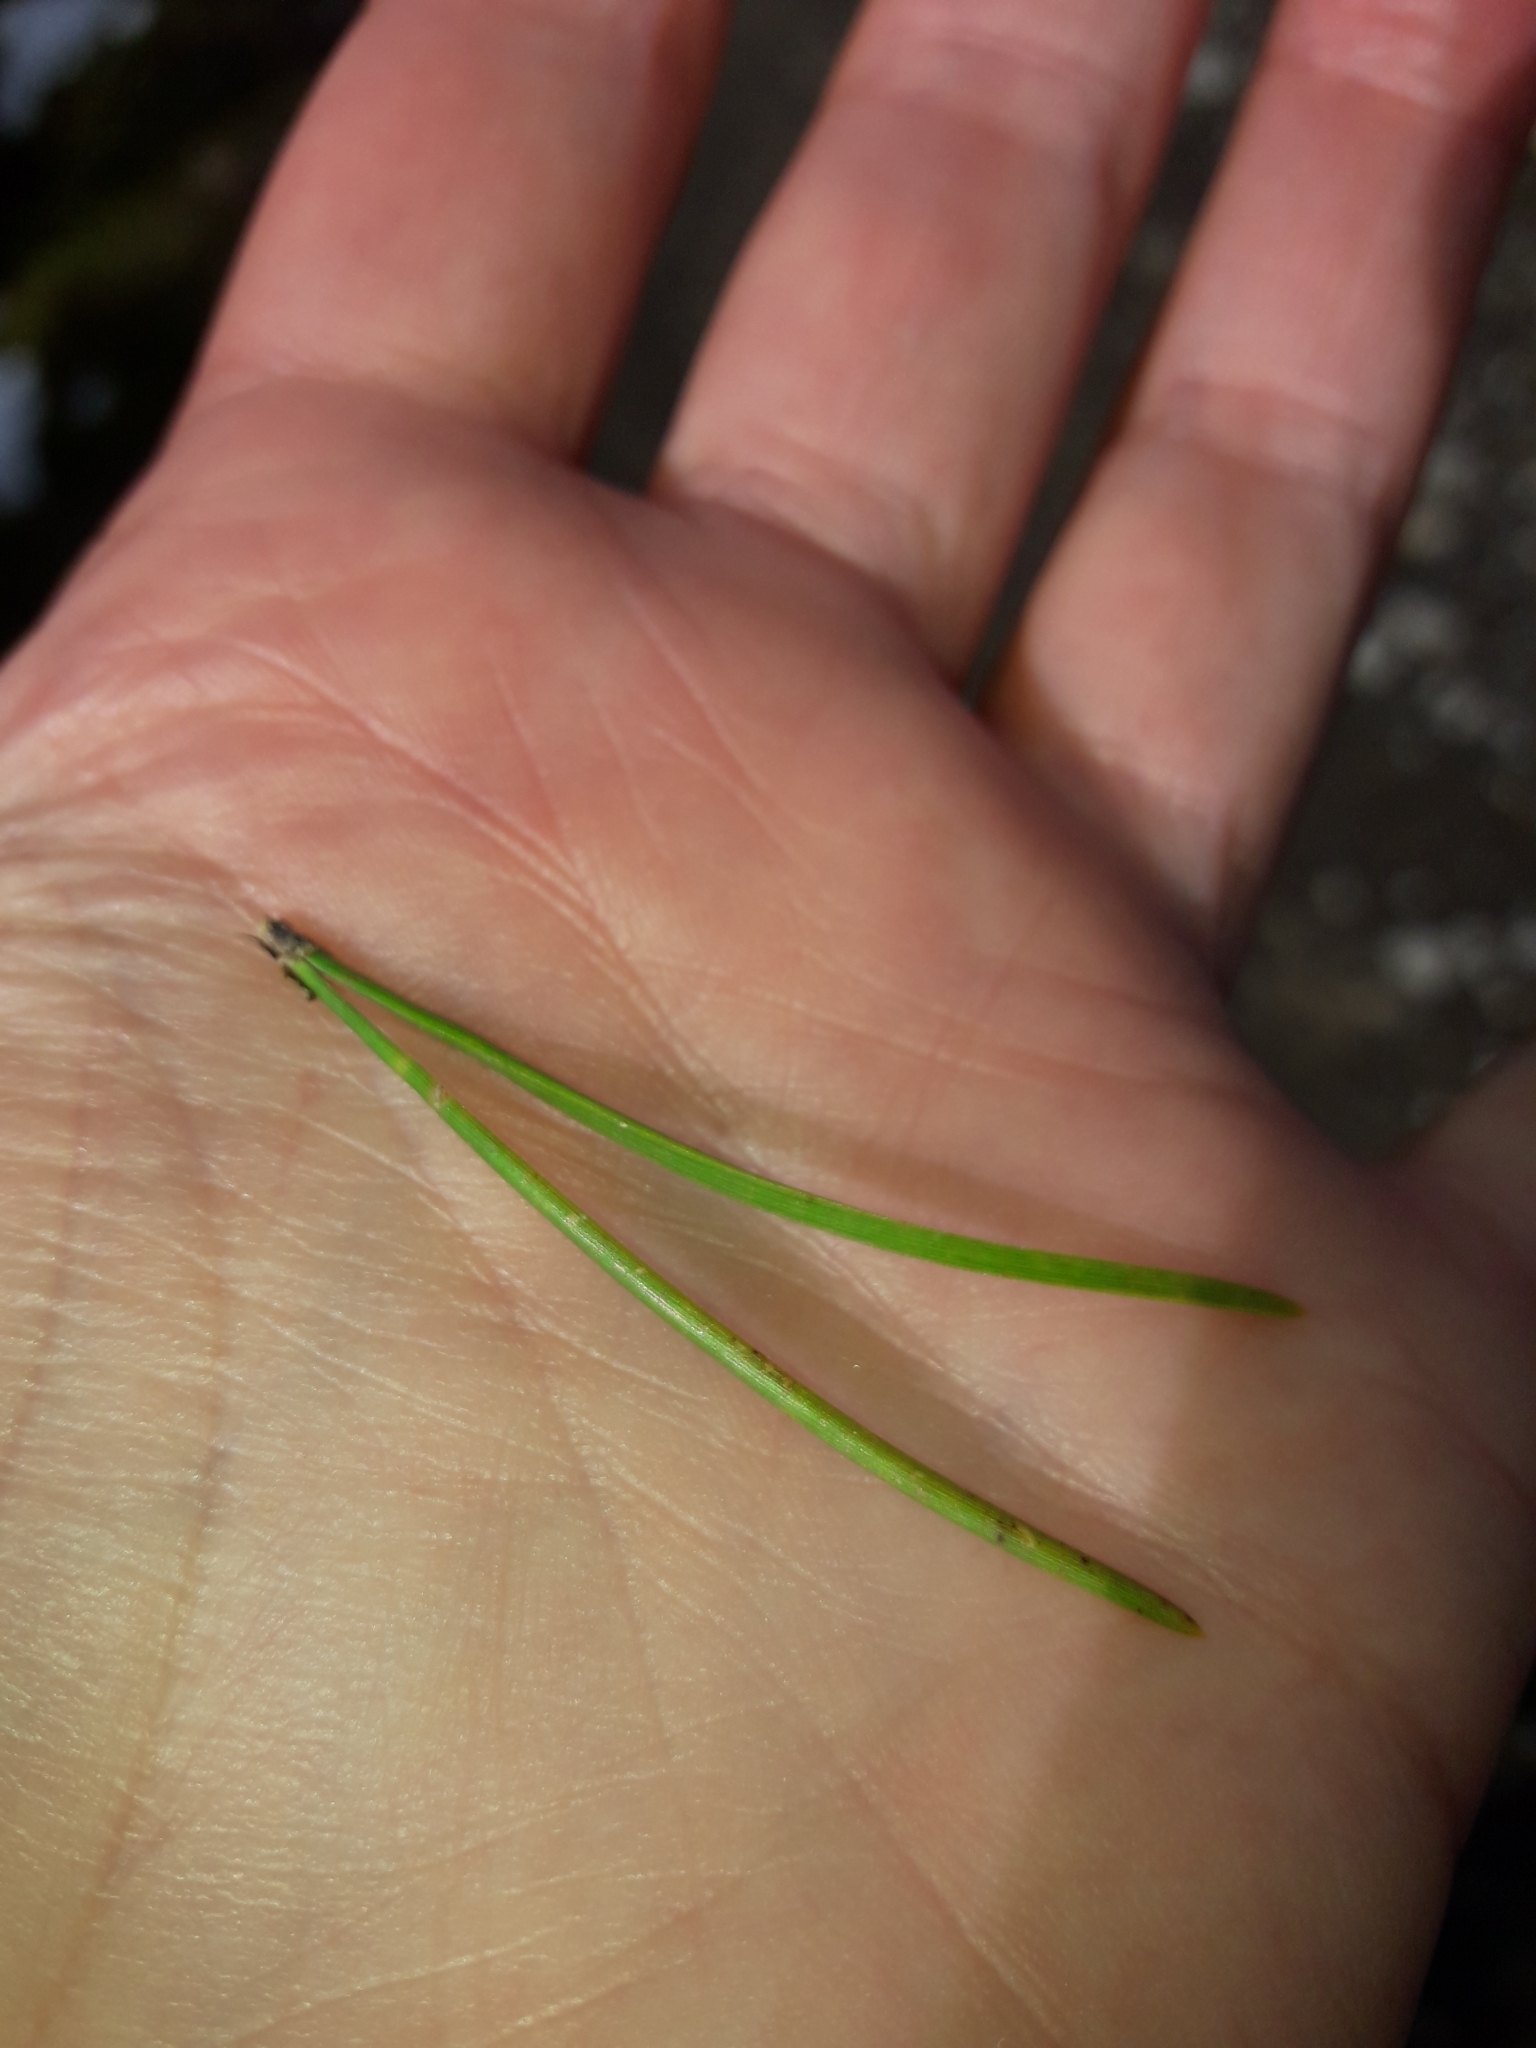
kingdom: Plantae
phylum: Tracheophyta
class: Pinopsida
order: Pinales
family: Pinaceae
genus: Pinus
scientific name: Pinus contorta
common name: Lodgepole pine
